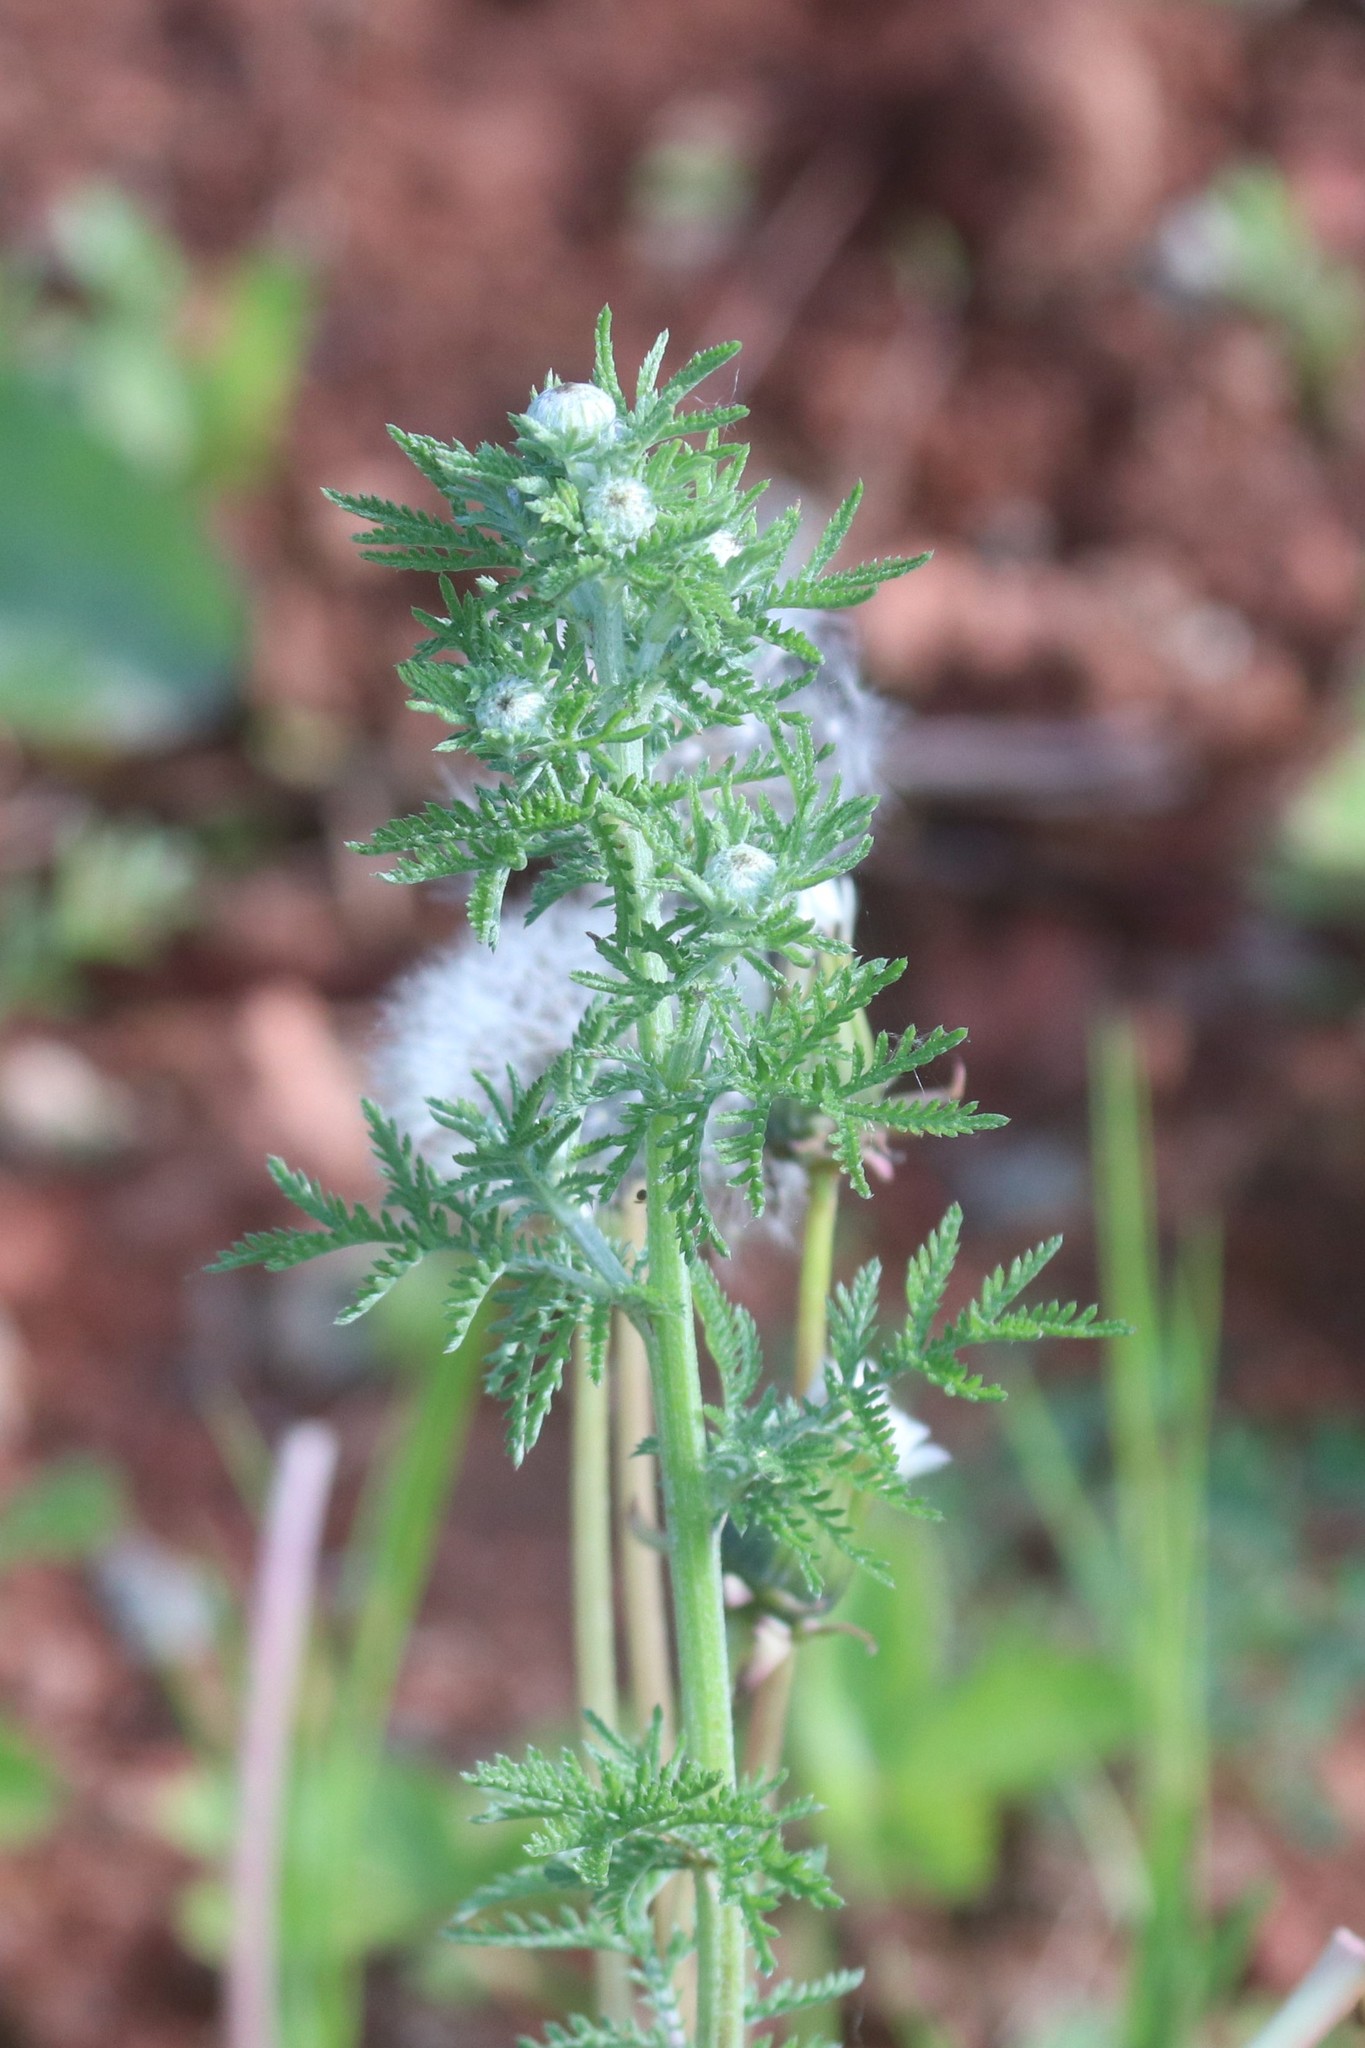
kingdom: Plantae
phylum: Tracheophyta
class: Magnoliopsida
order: Asterales
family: Asteraceae
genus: Cota
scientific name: Cota tinctoria
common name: Golden chamomile
